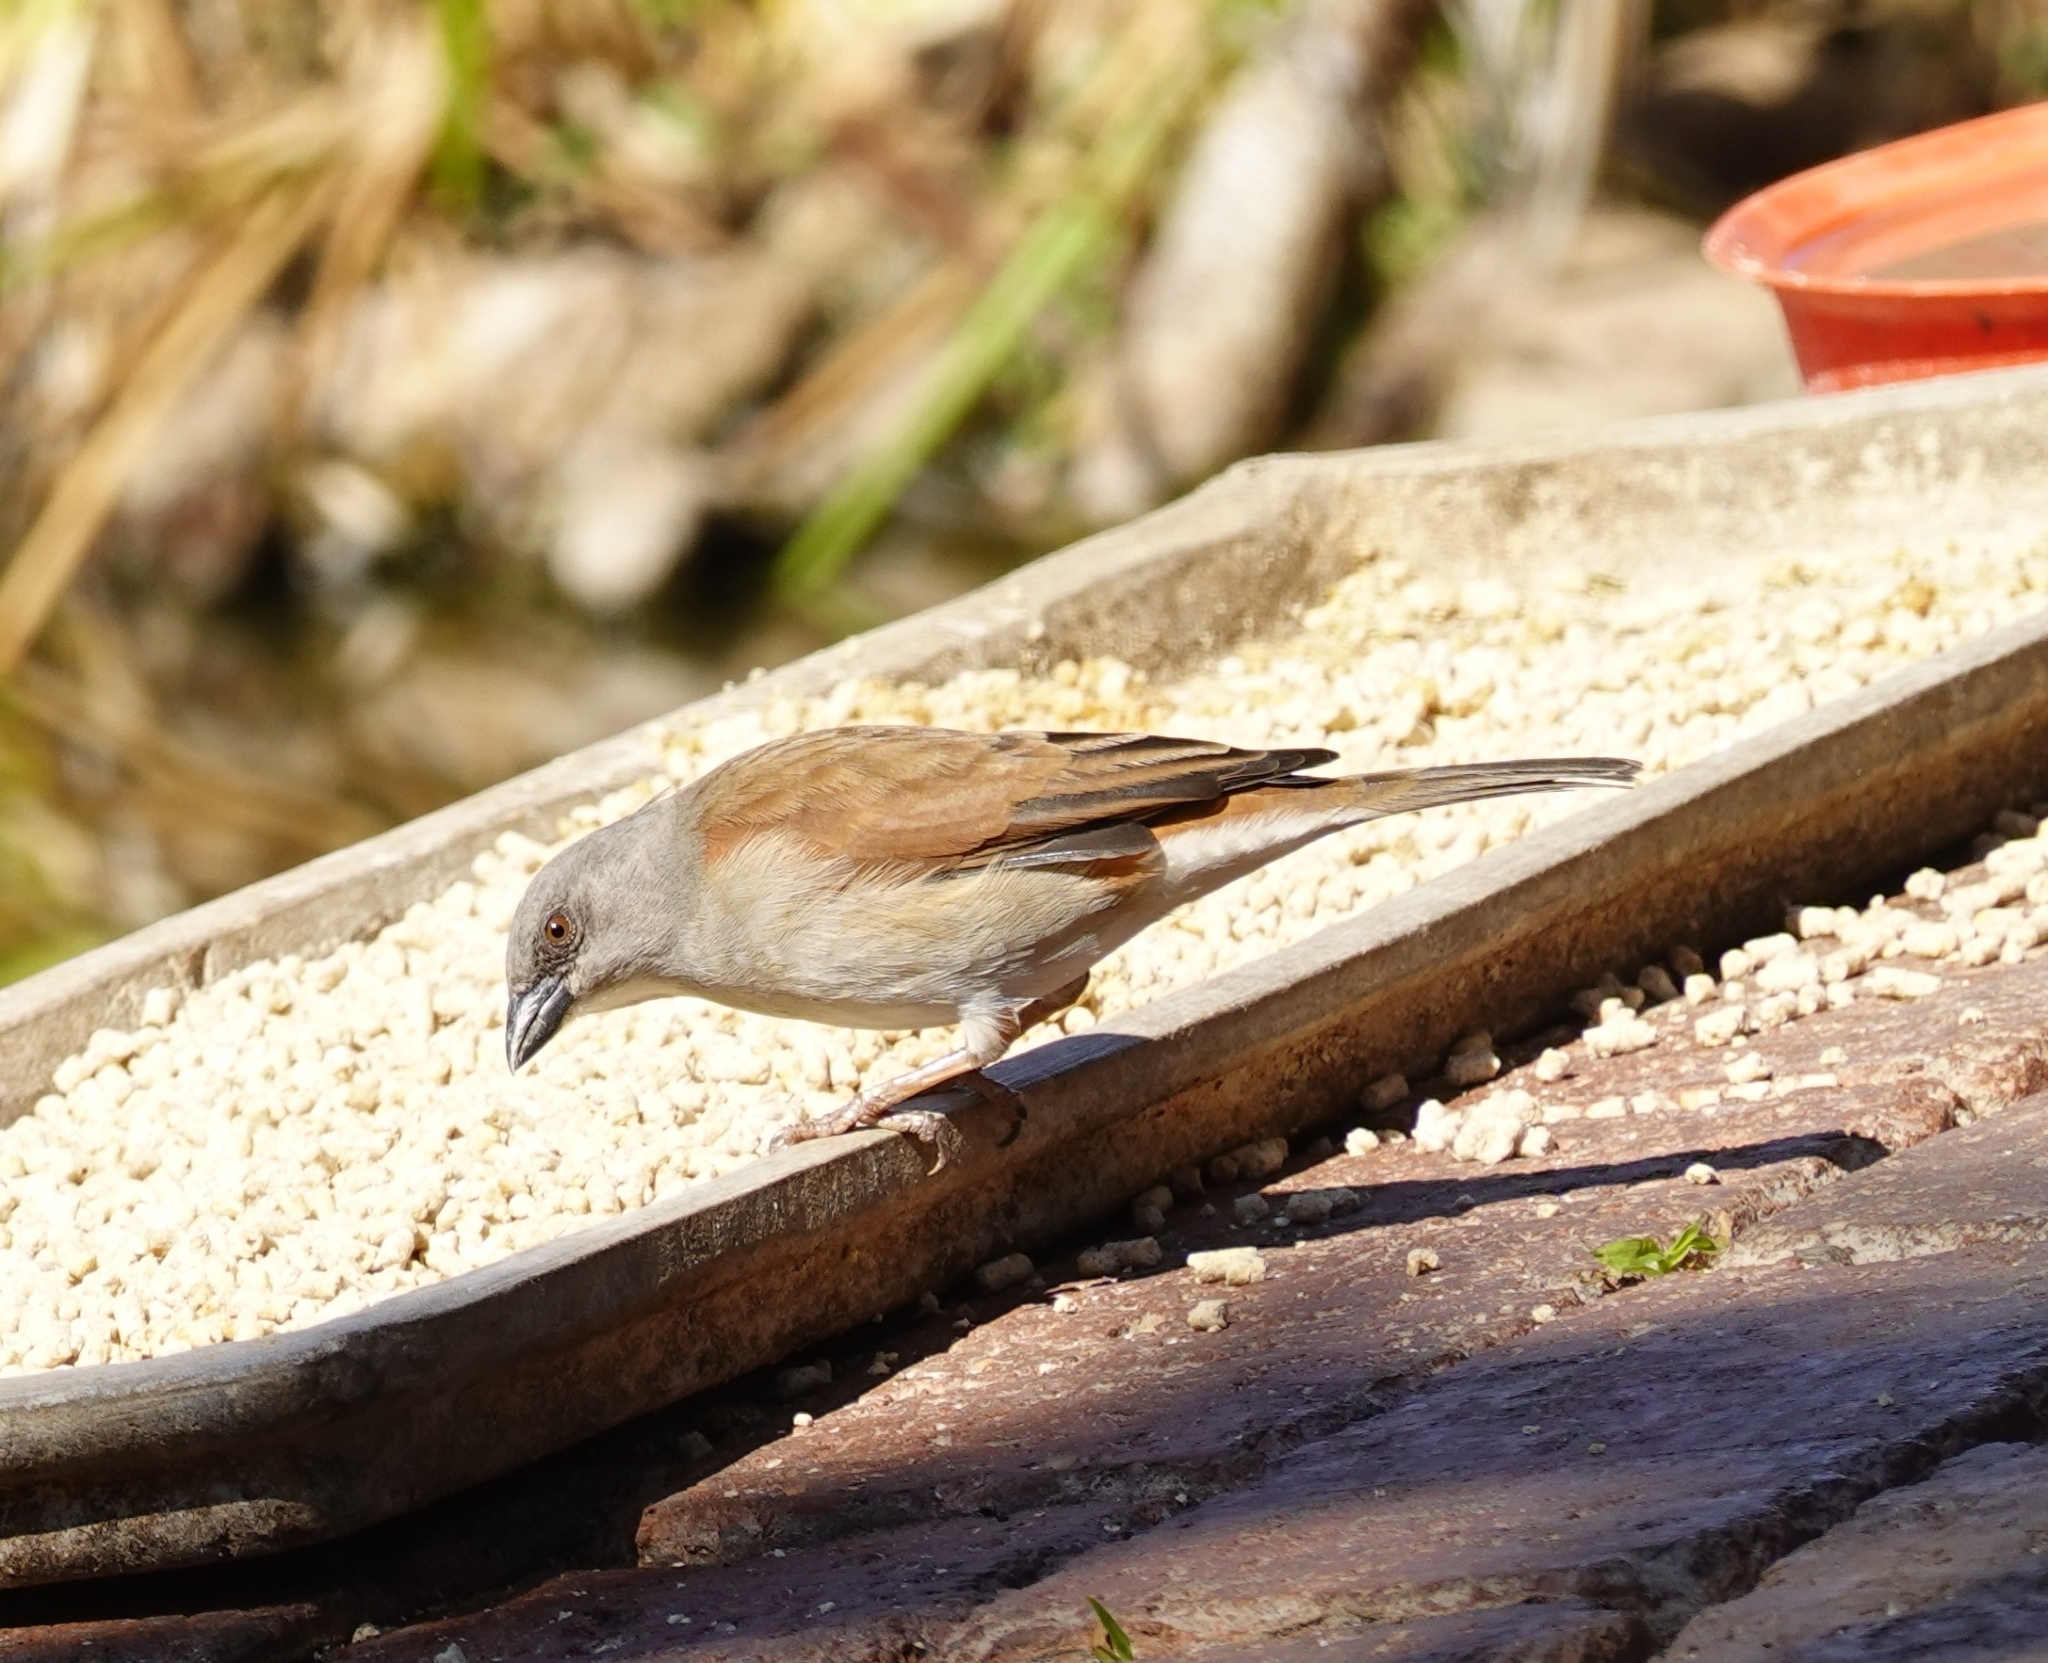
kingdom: Animalia
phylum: Chordata
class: Aves
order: Passeriformes
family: Passeridae
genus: Passer
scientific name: Passer griseus
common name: Northern grey-headed sparrow
